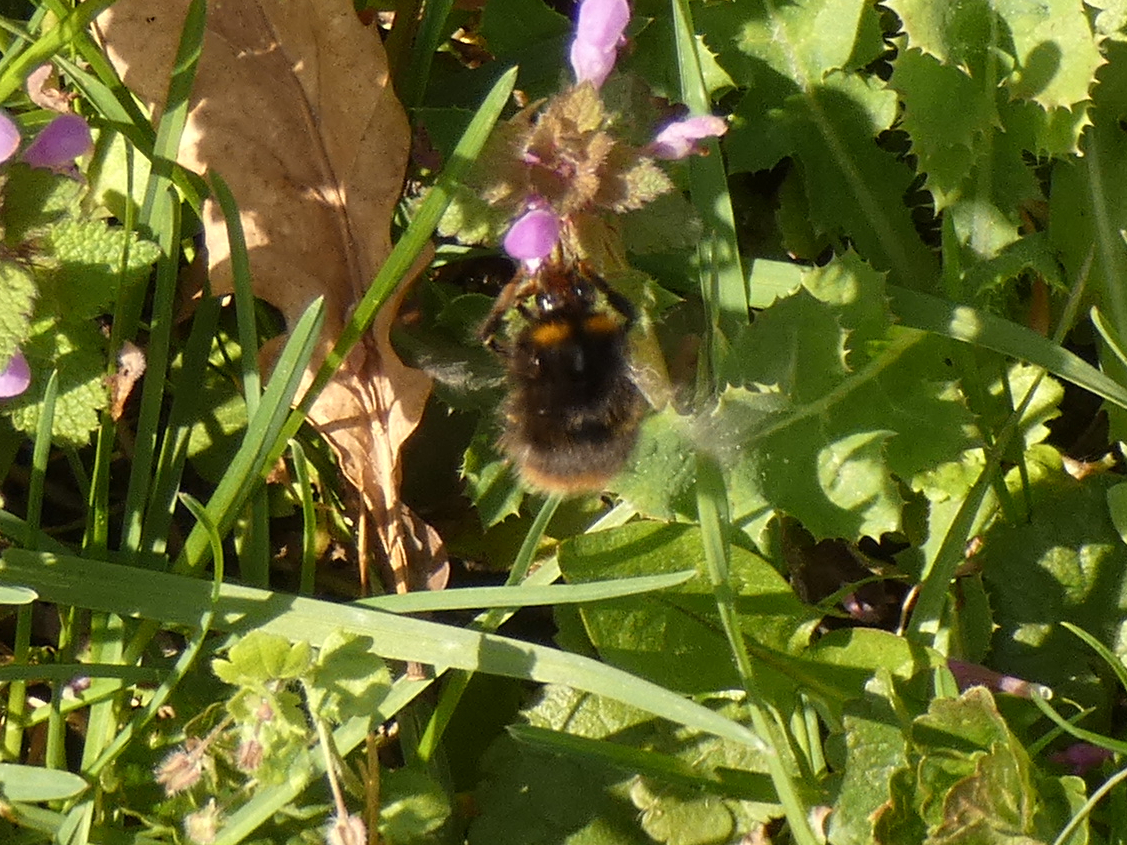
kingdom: Animalia
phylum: Arthropoda
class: Insecta
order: Hymenoptera
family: Apidae
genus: Bombus
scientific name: Bombus pratorum
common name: Early humble-bee
